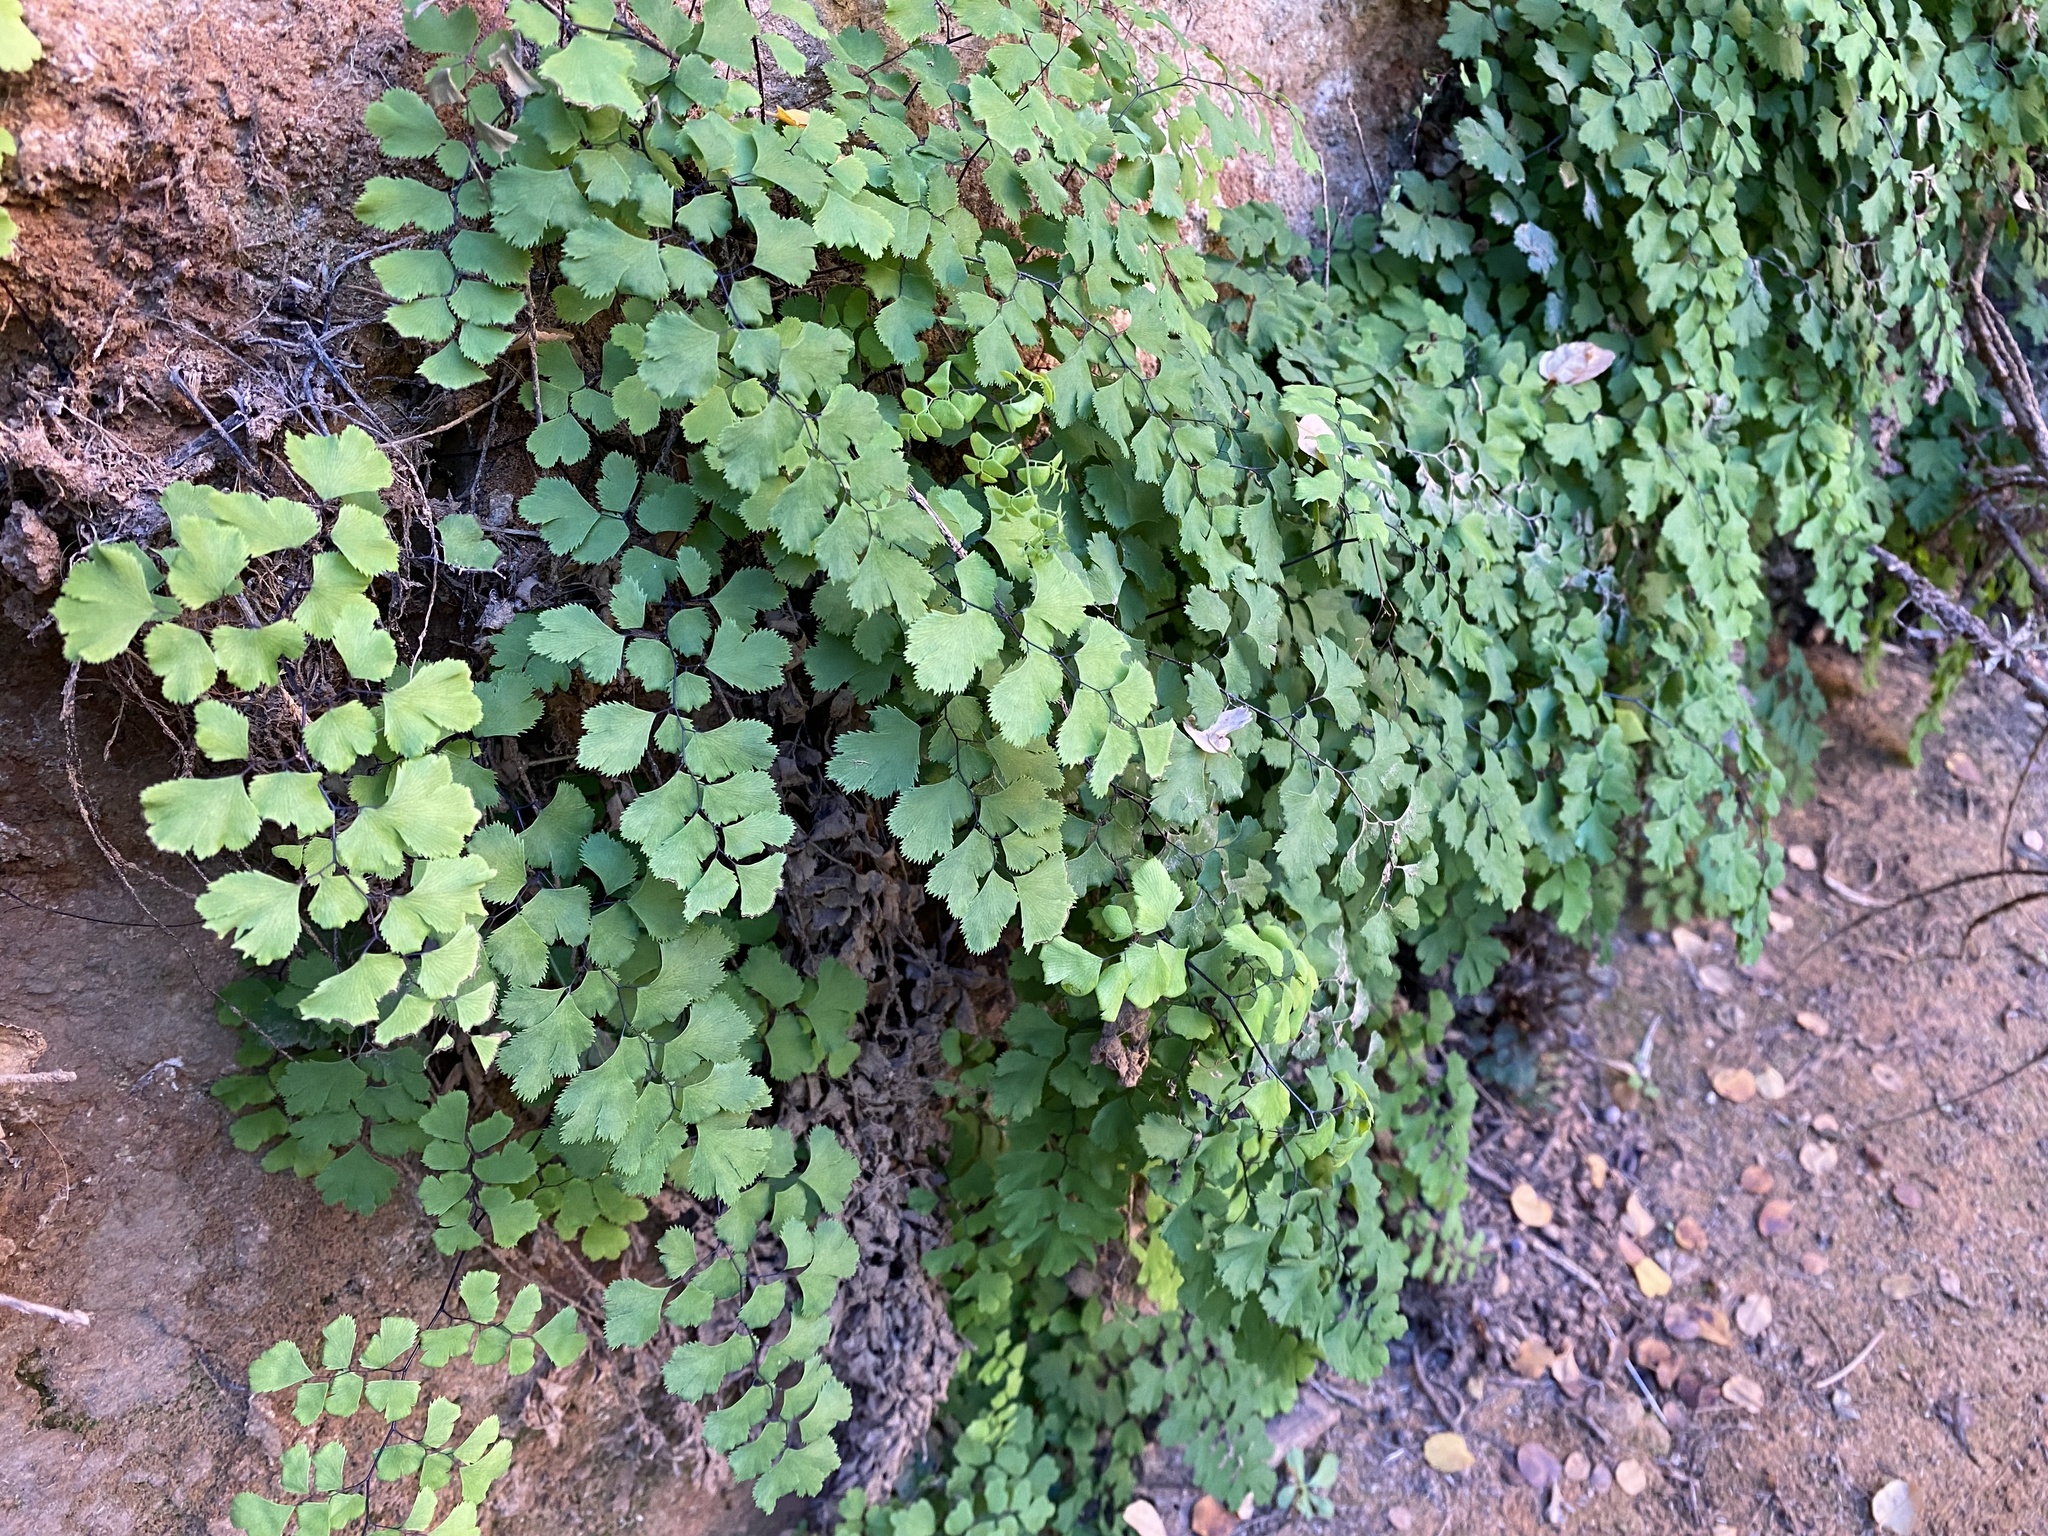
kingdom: Plantae
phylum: Tracheophyta
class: Polypodiopsida
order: Polypodiales
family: Pteridaceae
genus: Adiantum
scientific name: Adiantum capillus-veneris
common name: Maidenhair fern
